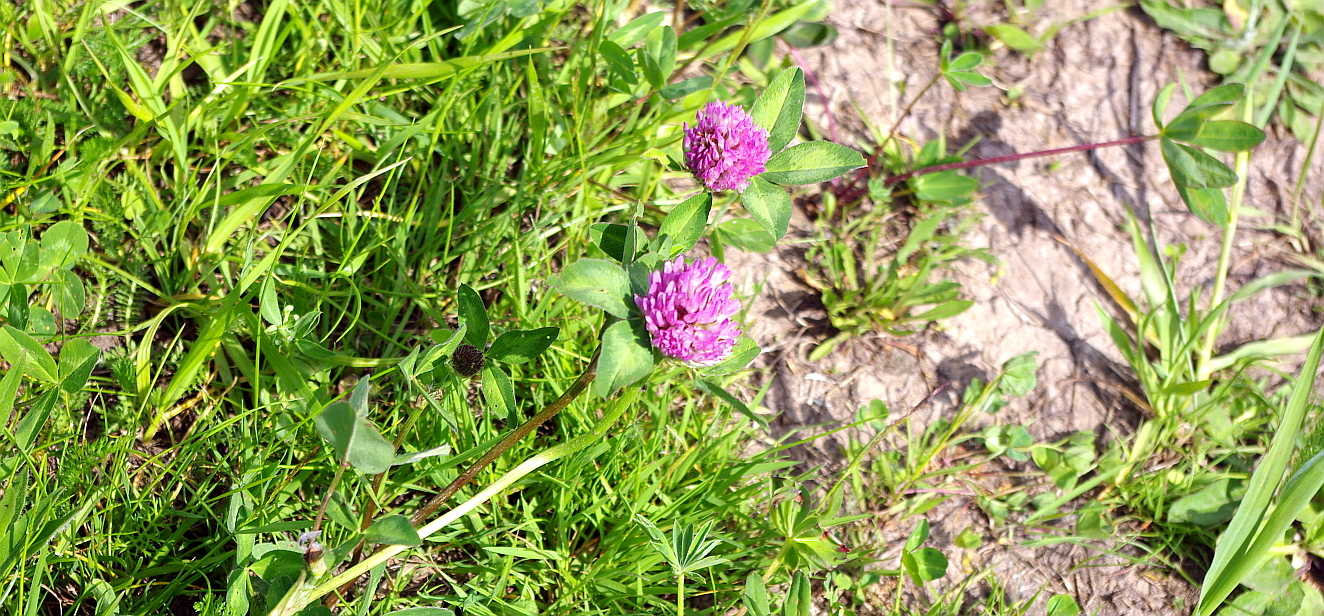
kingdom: Plantae
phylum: Tracheophyta
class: Magnoliopsida
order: Fabales
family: Fabaceae
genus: Trifolium
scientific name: Trifolium pratense
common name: Red clover
